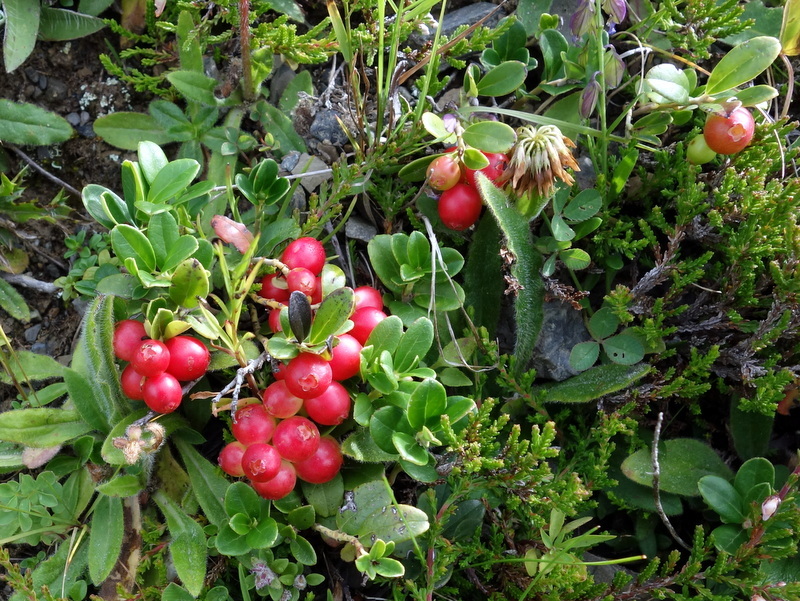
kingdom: Plantae
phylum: Tracheophyta
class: Magnoliopsida
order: Ericales
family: Ericaceae
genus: Vaccinium
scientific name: Vaccinium vitis-idaea
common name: Cowberry
